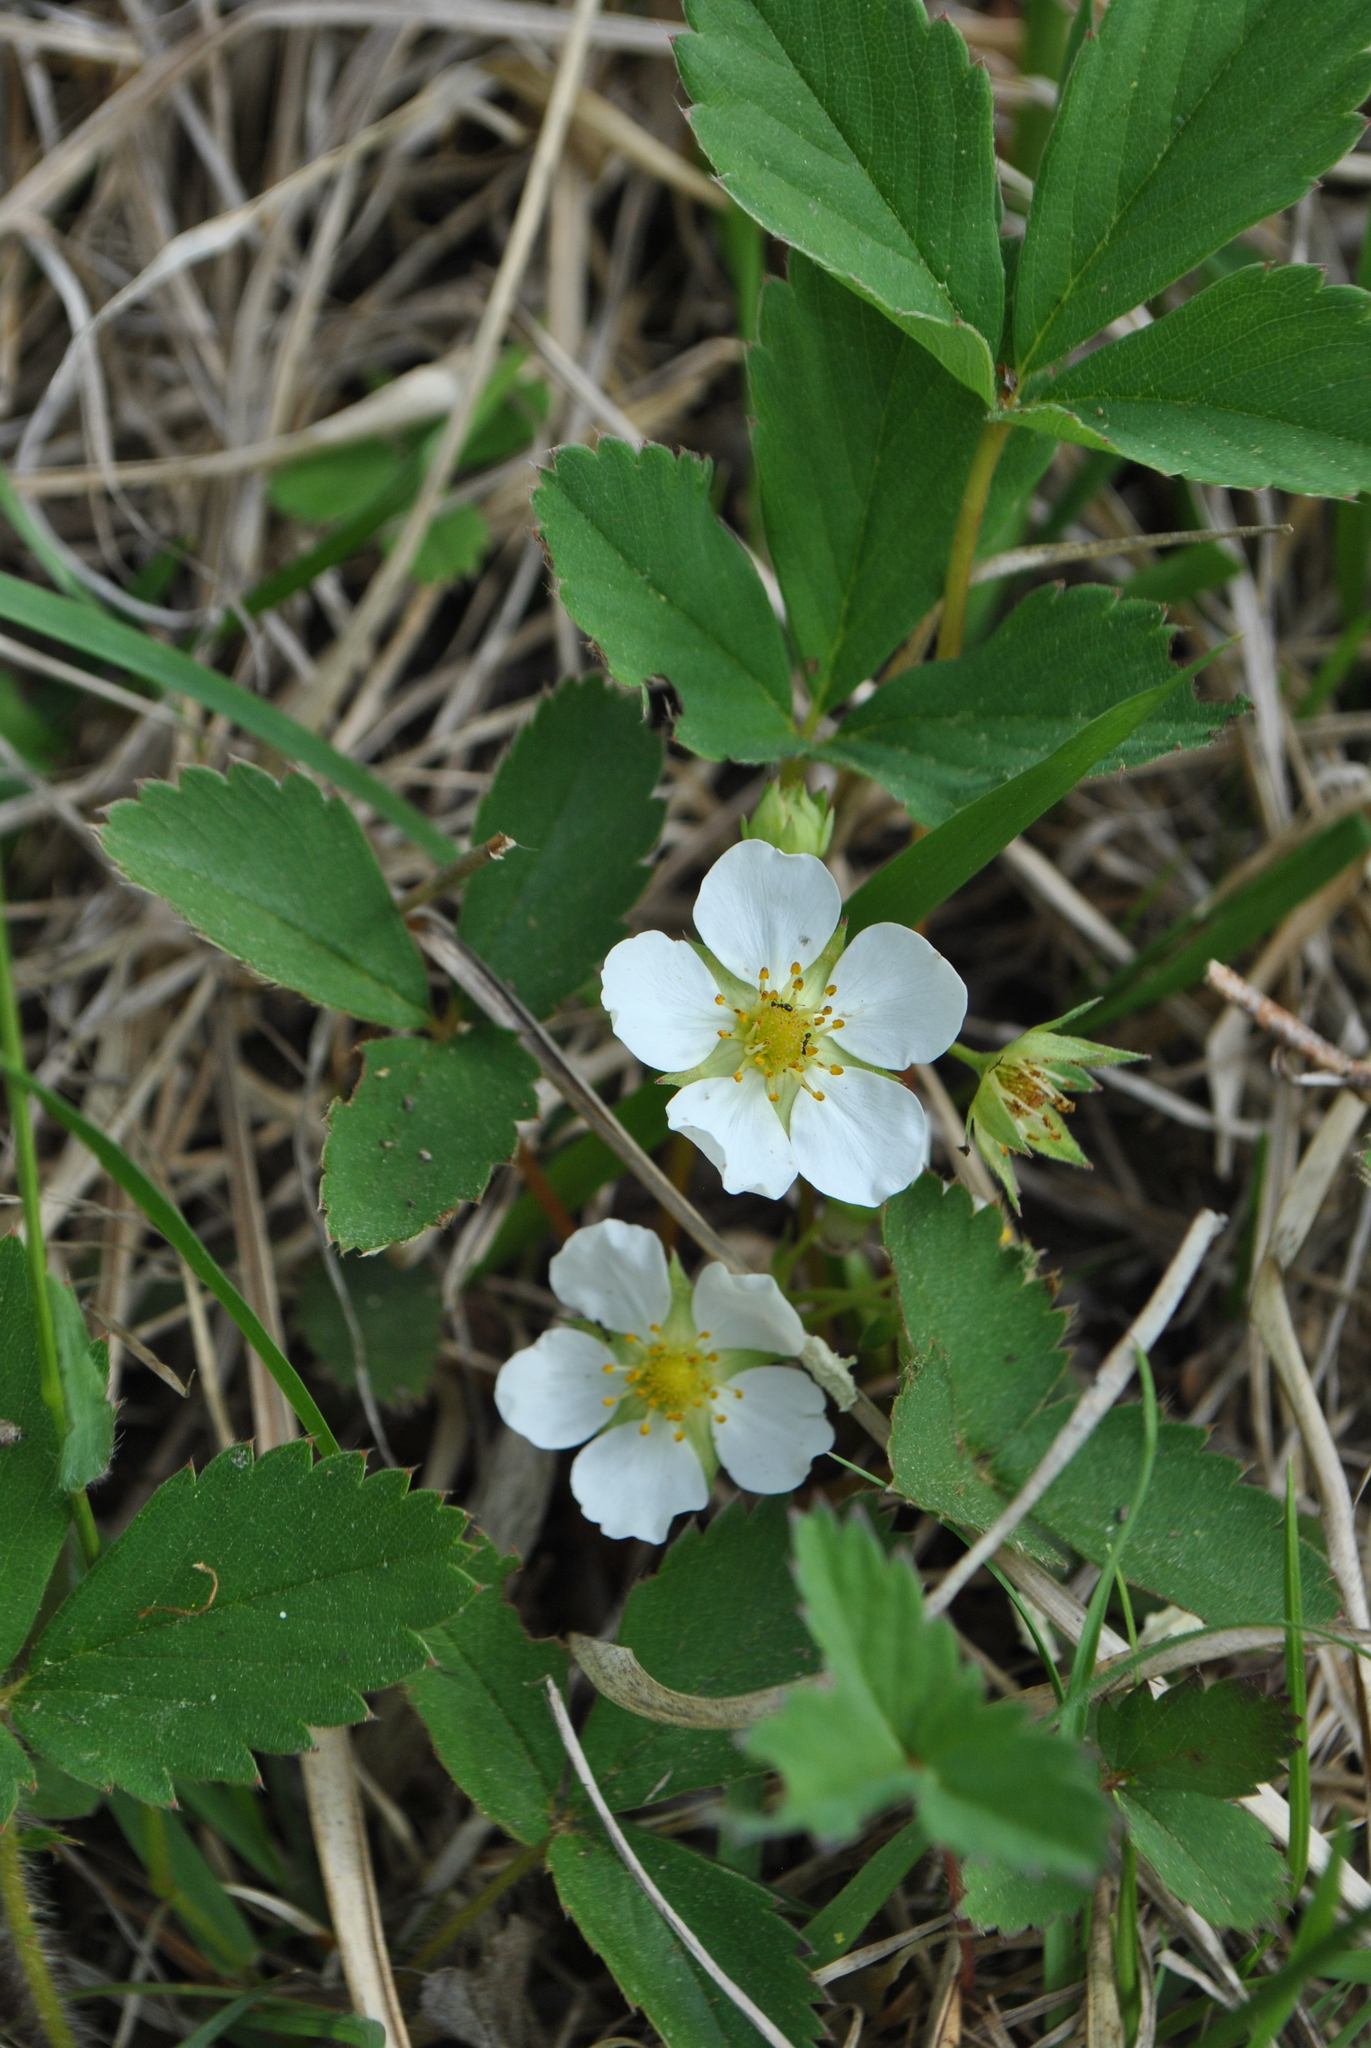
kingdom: Plantae
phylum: Tracheophyta
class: Magnoliopsida
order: Rosales
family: Rosaceae
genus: Fragaria
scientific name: Fragaria virginiana
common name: Thickleaved wild strawberry
